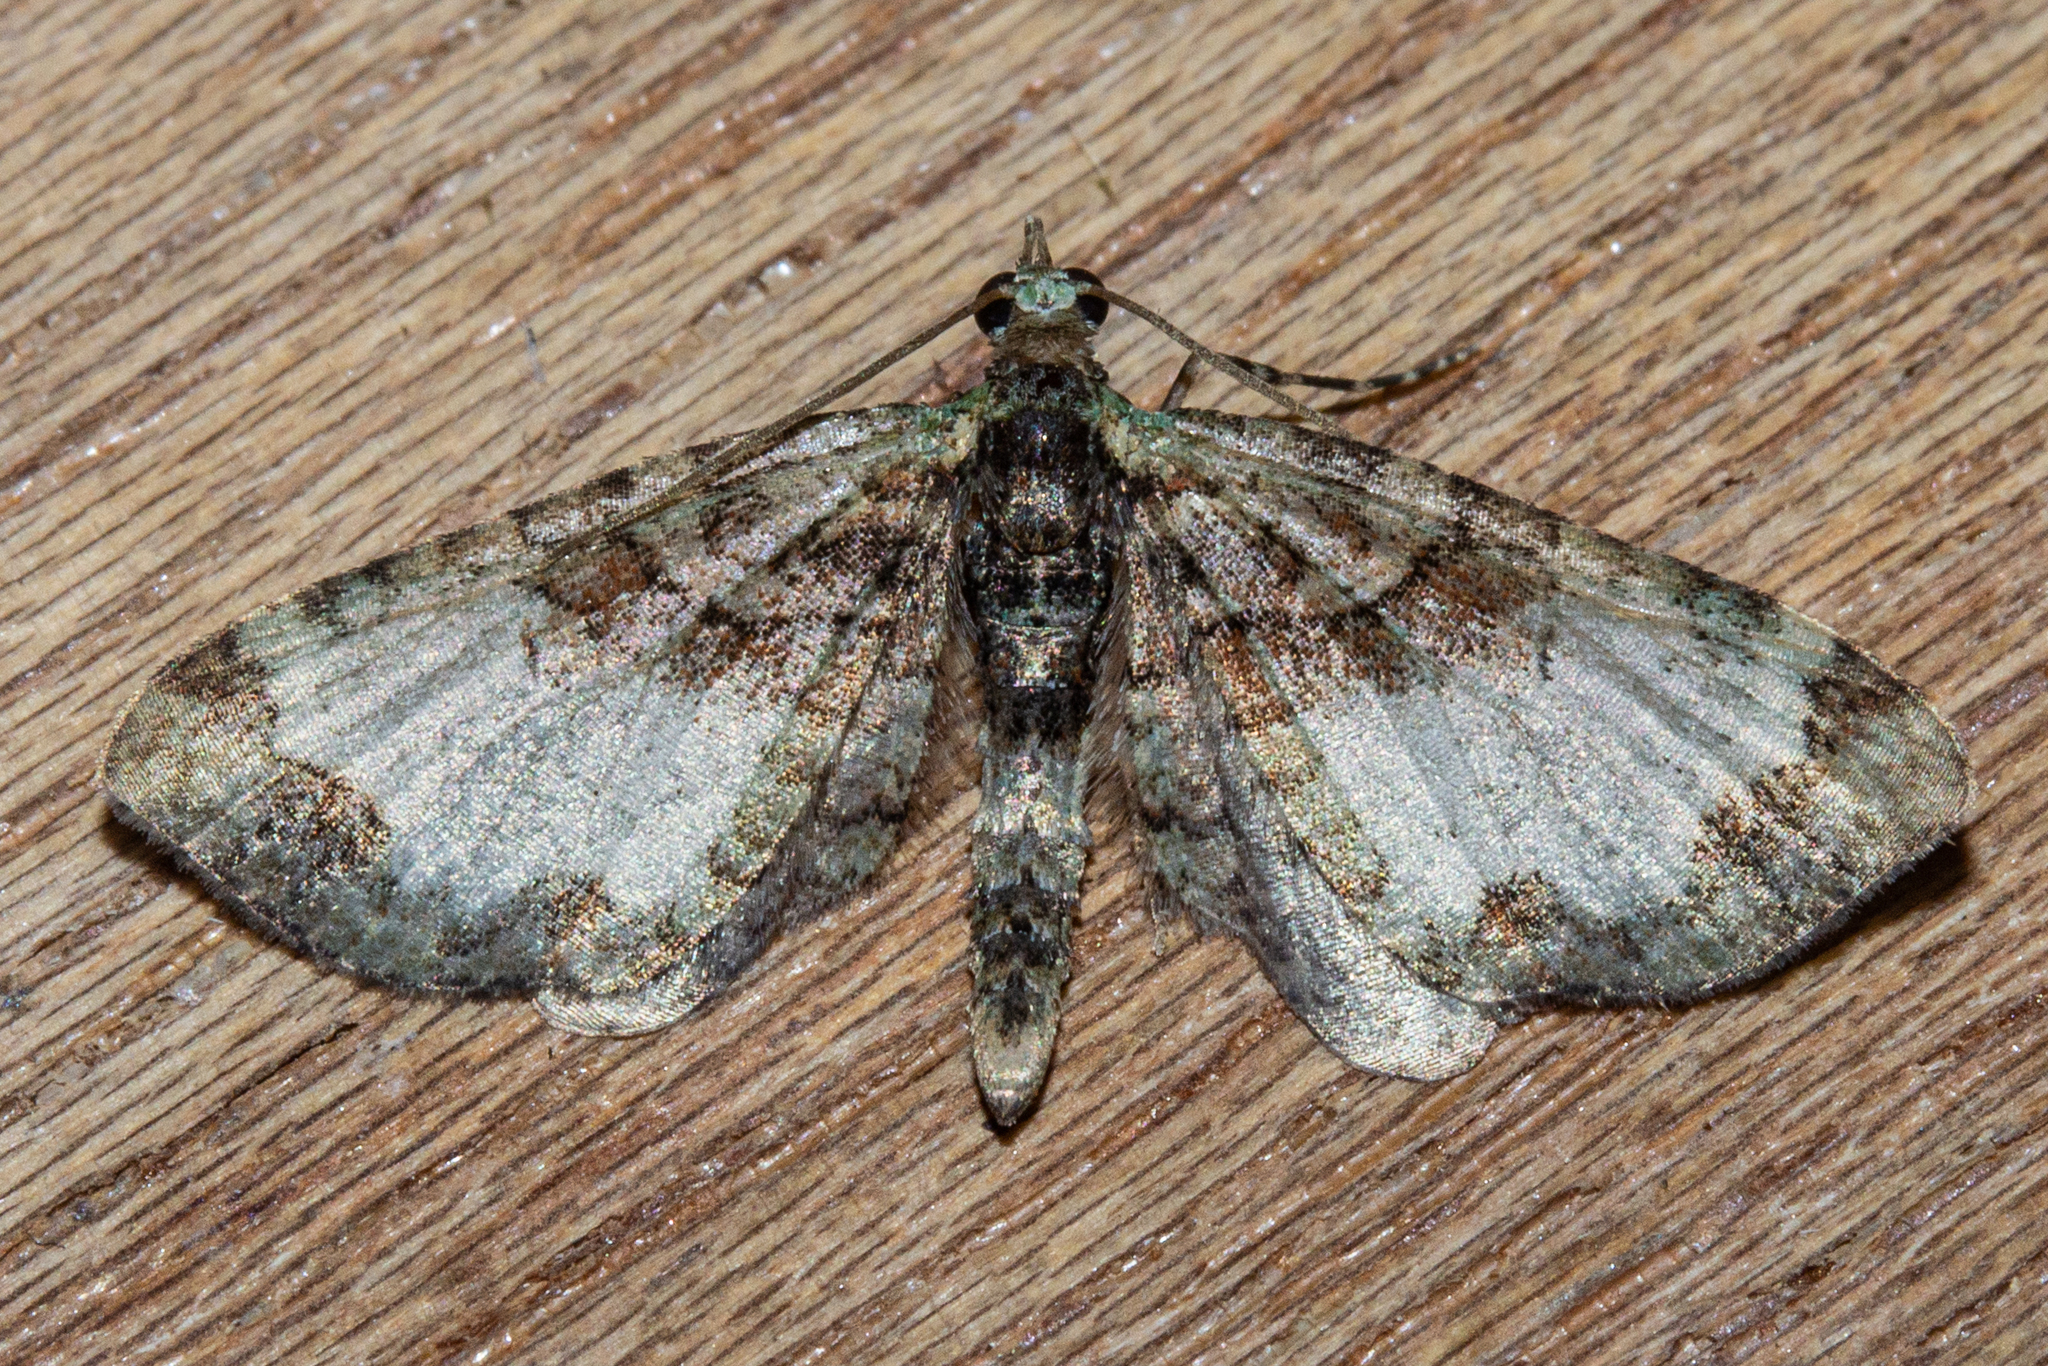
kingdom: Animalia
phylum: Arthropoda
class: Insecta
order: Lepidoptera
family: Geometridae
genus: Idaea
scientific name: Idaea mutanda
